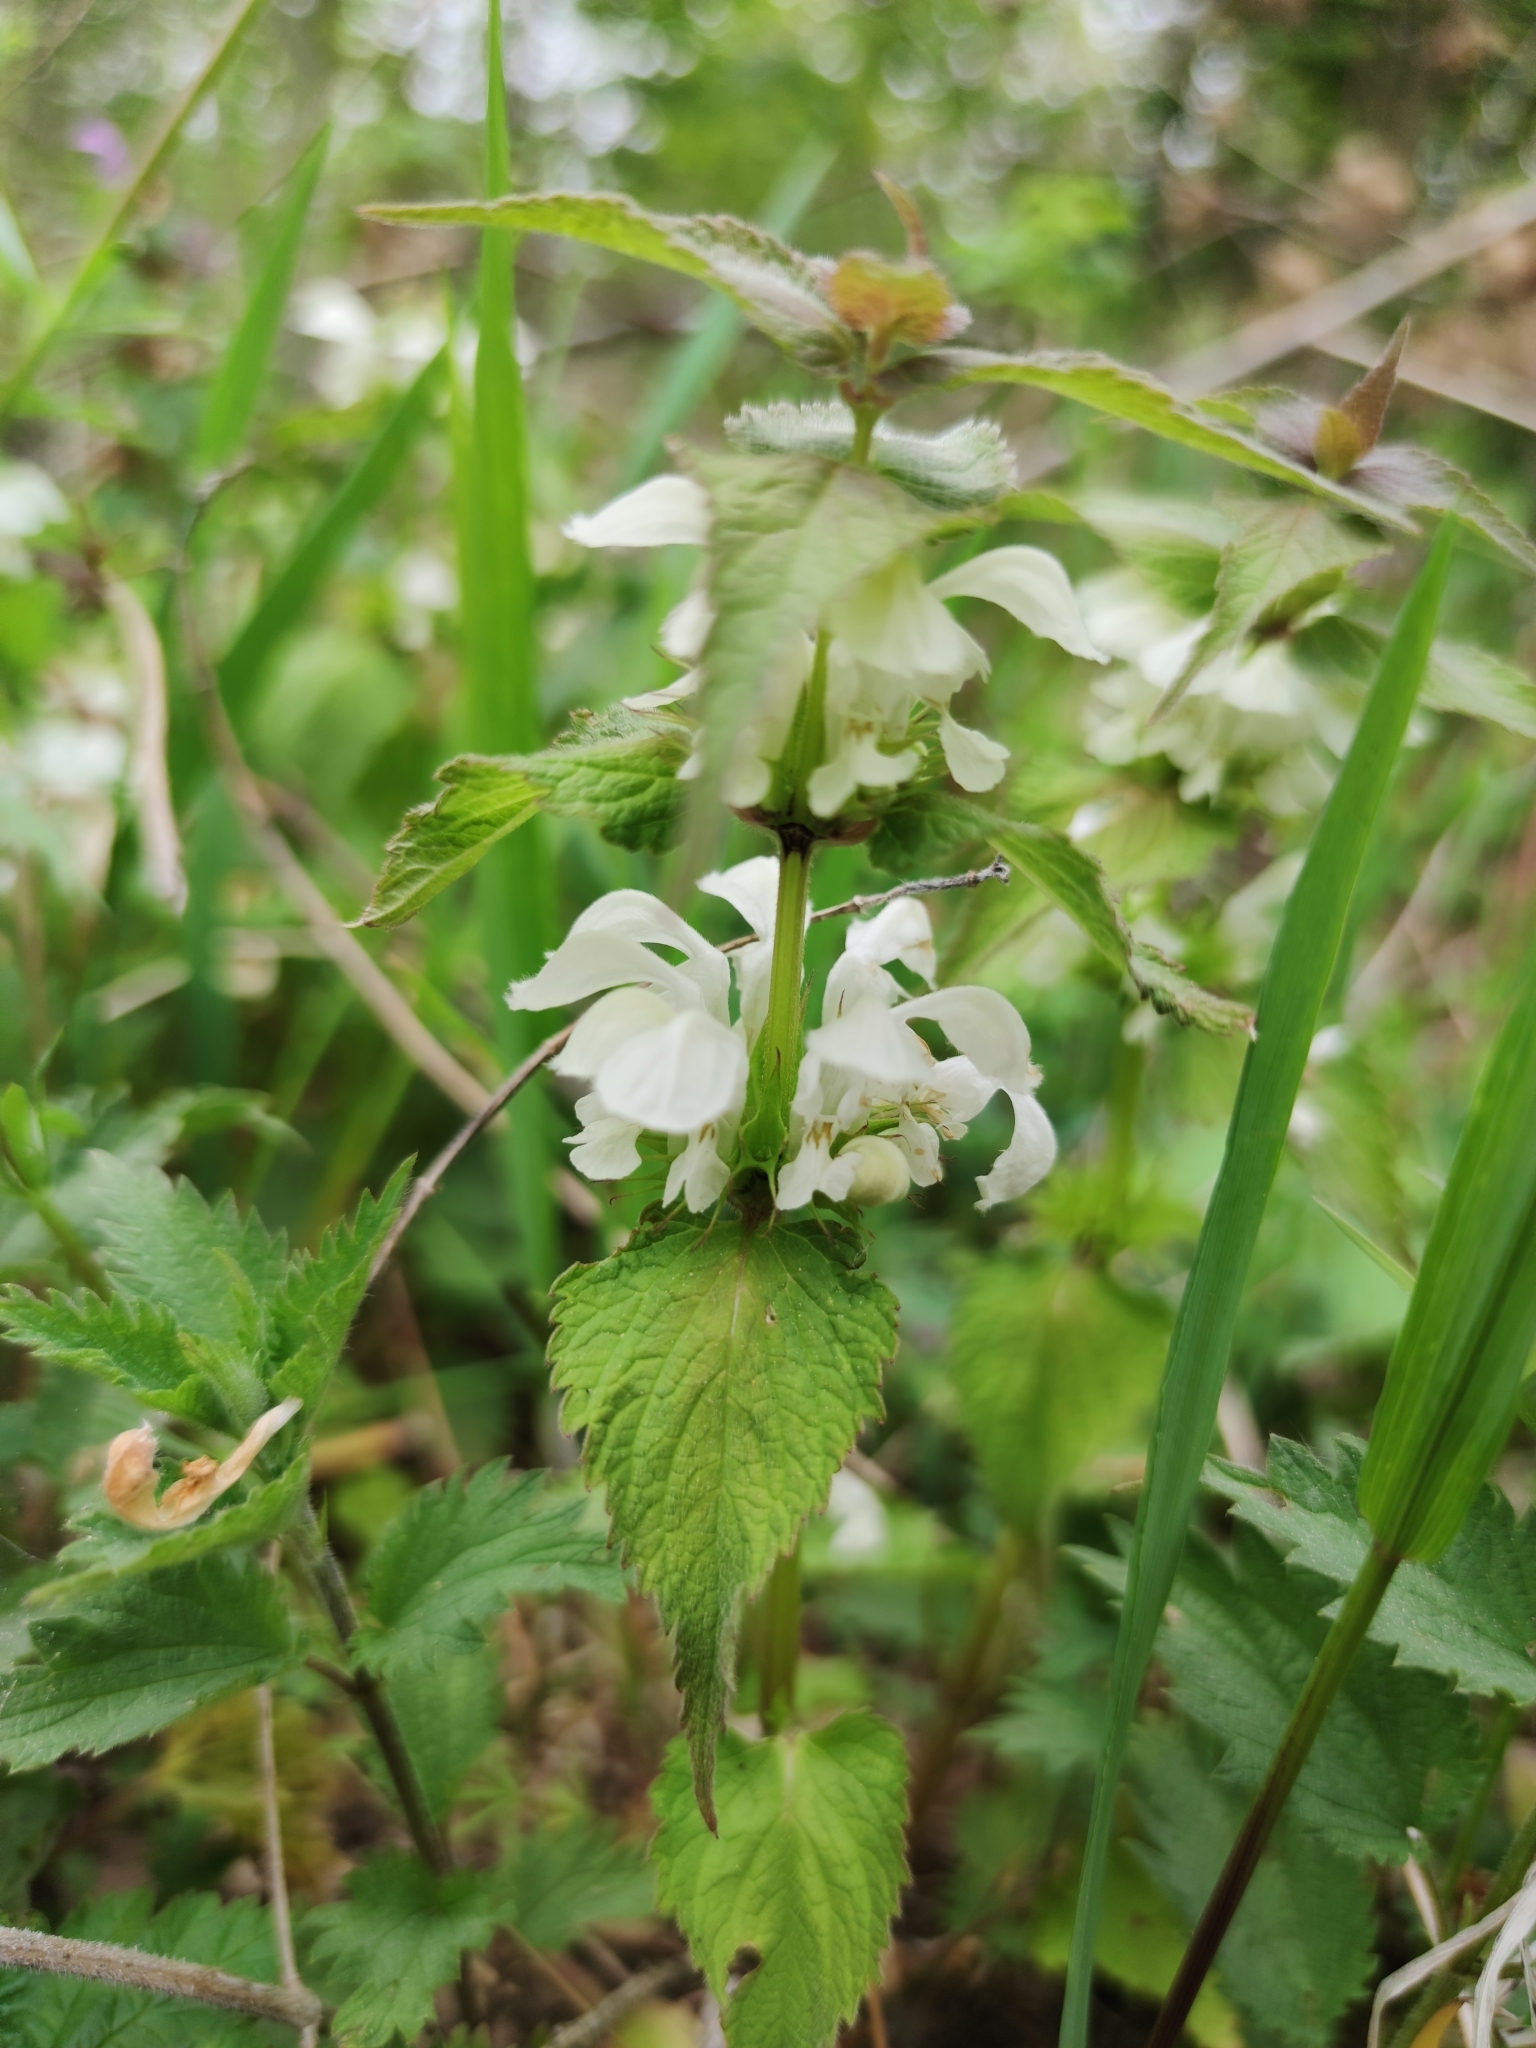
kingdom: Plantae
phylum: Tracheophyta
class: Magnoliopsida
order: Lamiales
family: Lamiaceae
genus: Lamium
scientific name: Lamium album
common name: White dead-nettle
